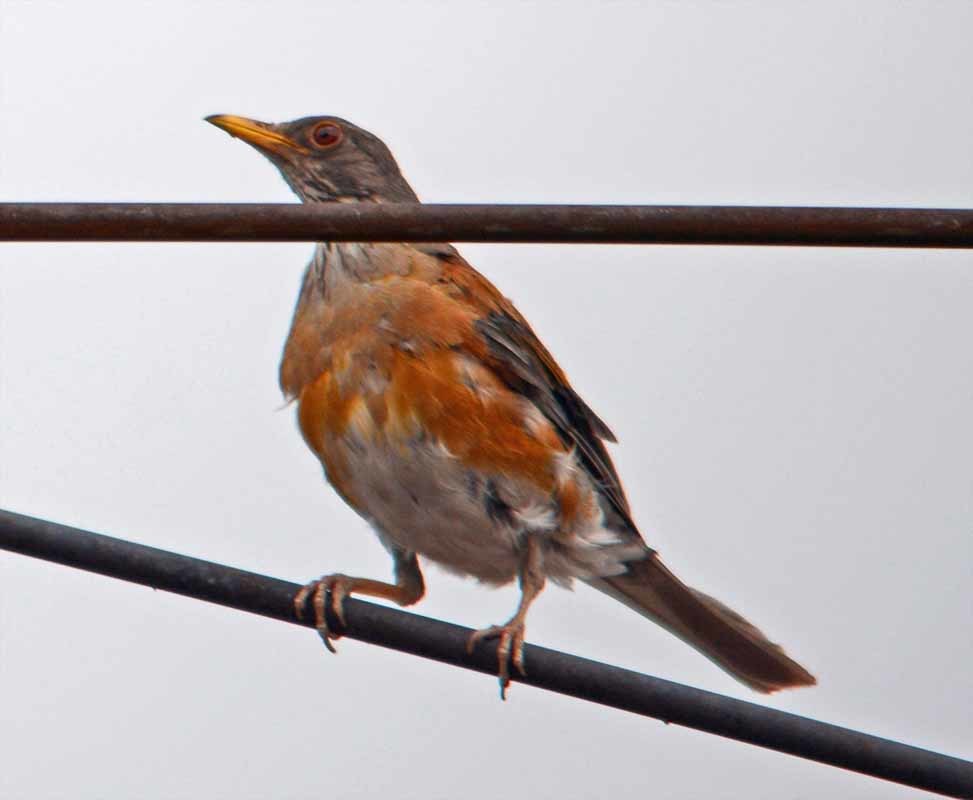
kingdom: Animalia
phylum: Chordata
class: Aves
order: Passeriformes
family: Turdidae
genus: Turdus
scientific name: Turdus rufopalliatus
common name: Rufous-backed robin
